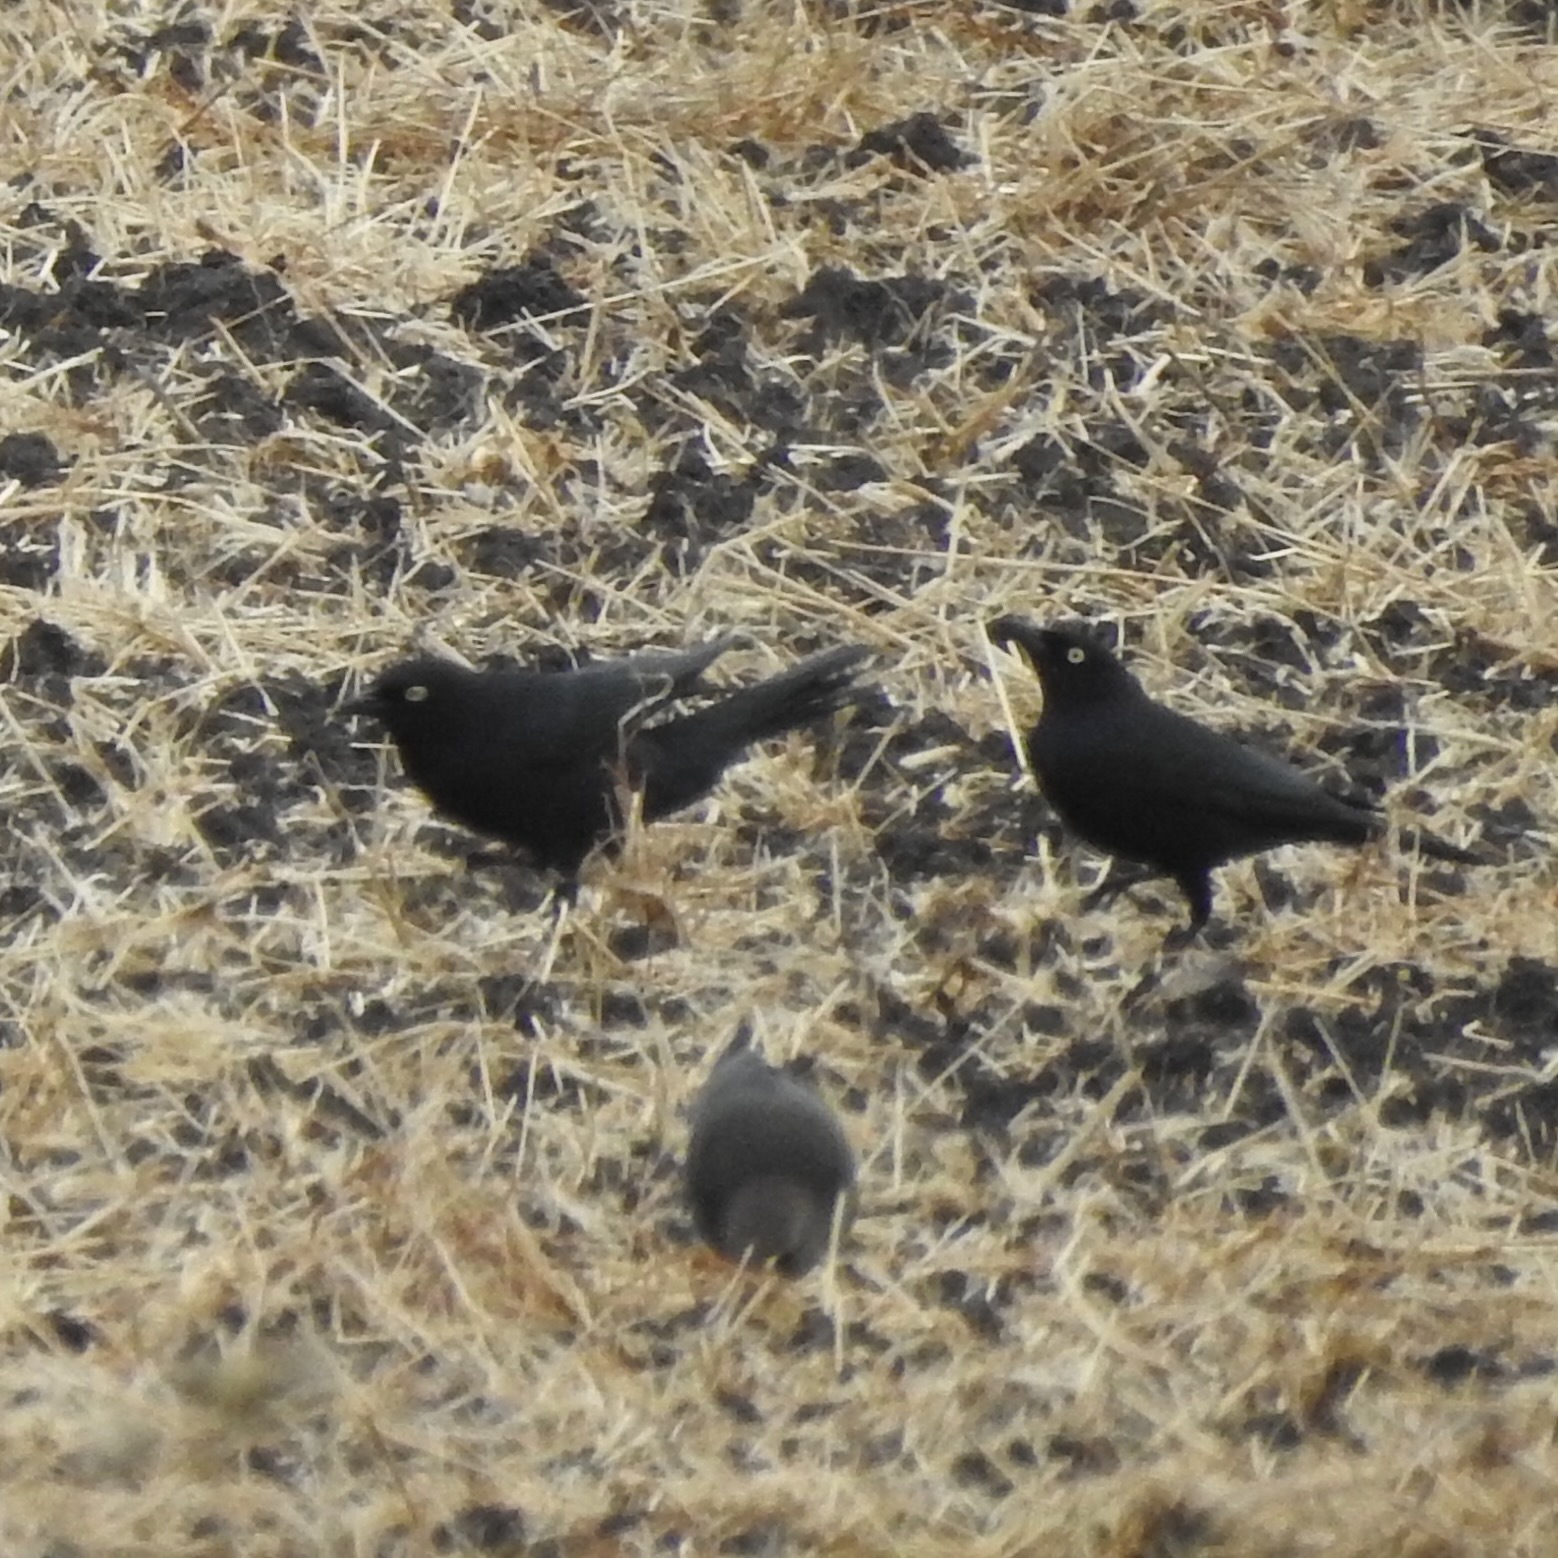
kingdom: Animalia
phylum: Chordata
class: Aves
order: Passeriformes
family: Icteridae
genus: Euphagus
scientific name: Euphagus cyanocephalus
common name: Brewer's blackbird
